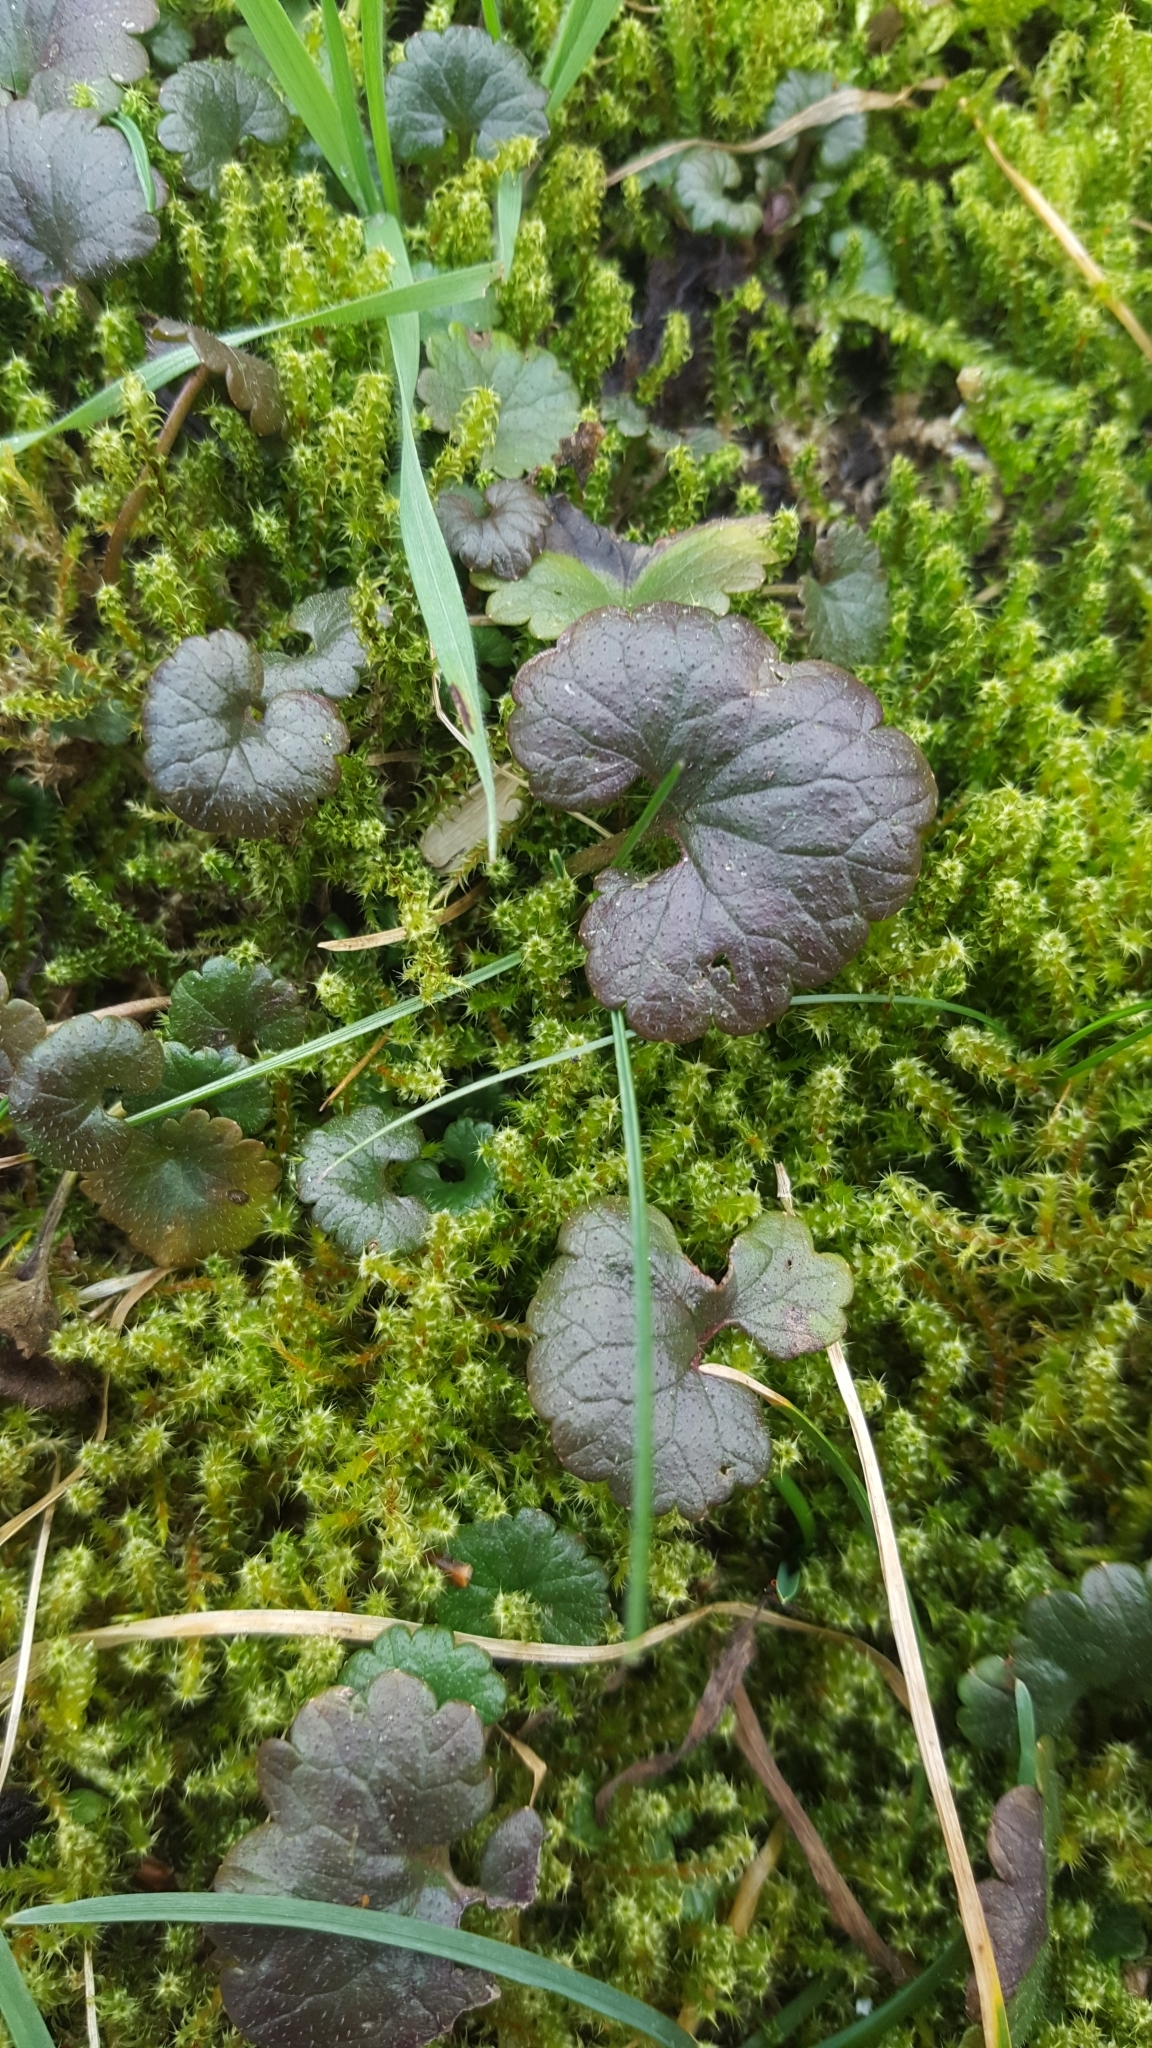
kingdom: Plantae
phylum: Tracheophyta
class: Magnoliopsida
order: Lamiales
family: Lamiaceae
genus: Glechoma
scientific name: Glechoma hederacea
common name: Ground ivy
